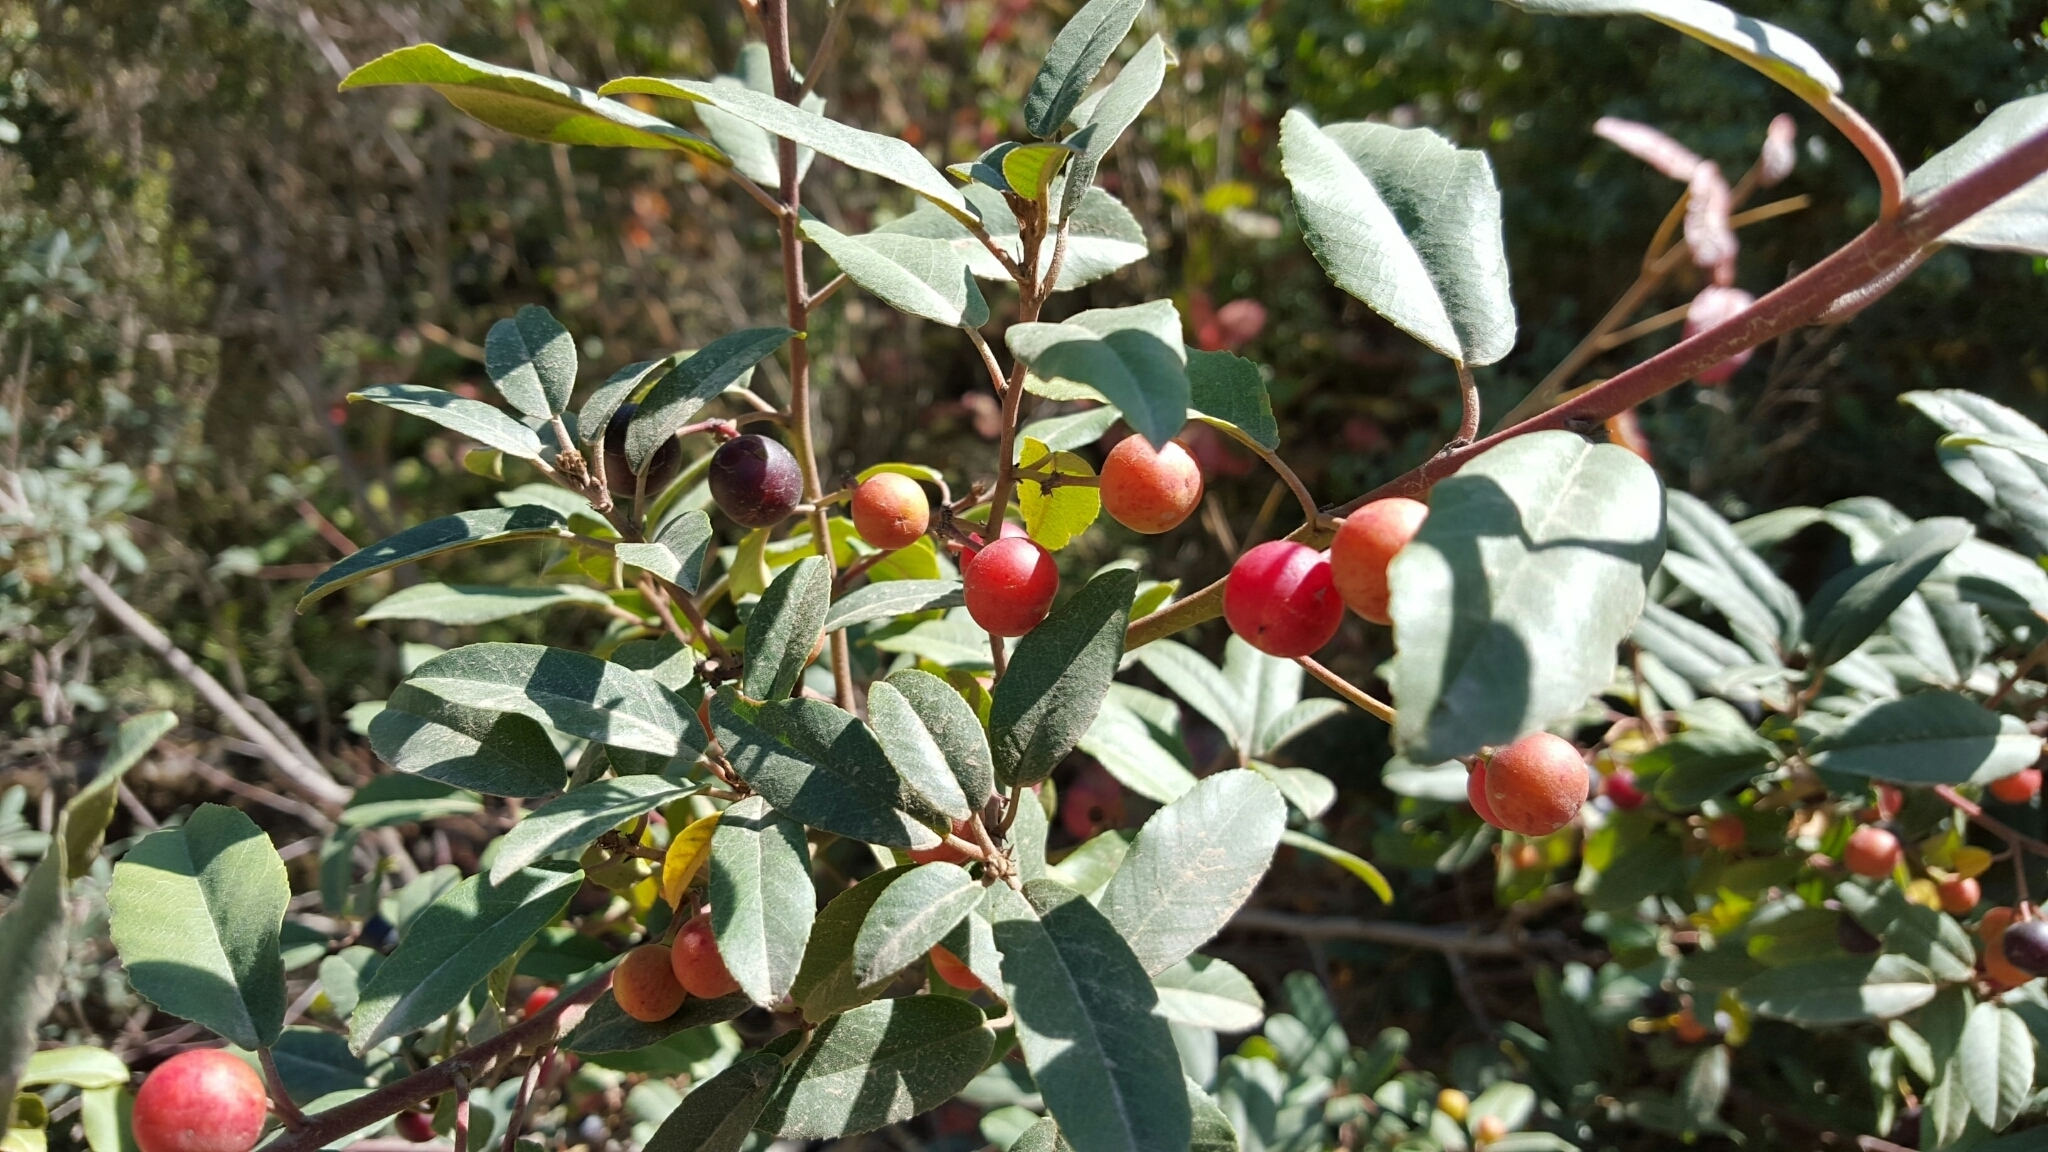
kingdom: Plantae
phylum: Tracheophyta
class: Magnoliopsida
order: Rosales
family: Rhamnaceae
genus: Frangula
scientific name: Frangula californica
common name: California buckthorn
